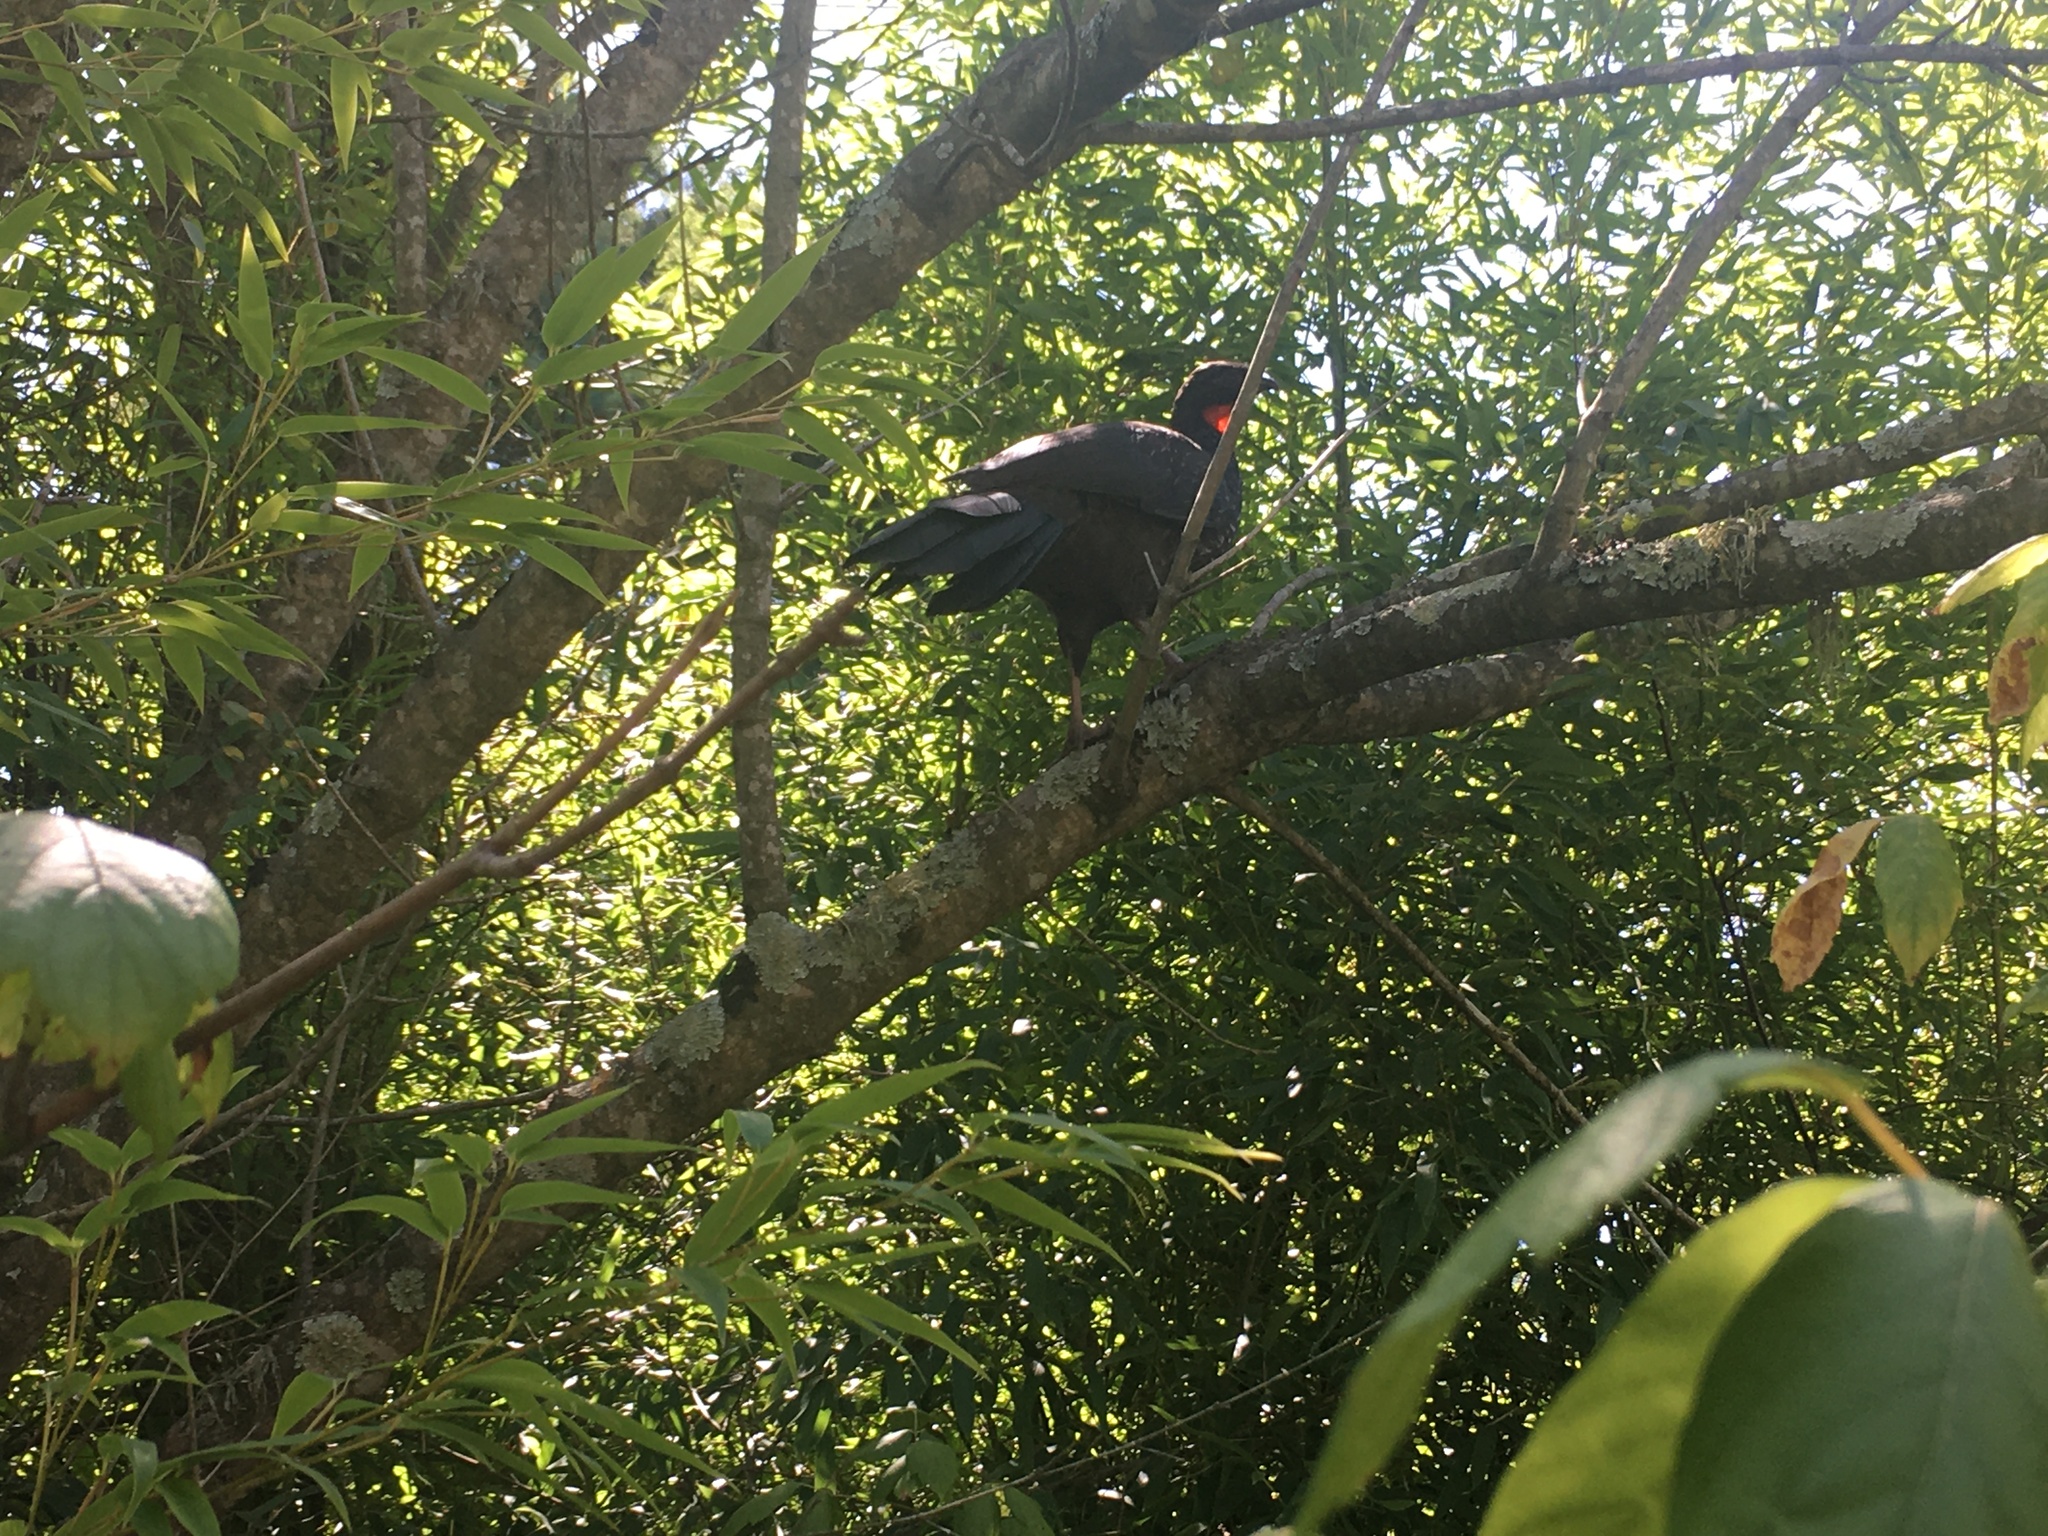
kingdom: Animalia
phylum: Chordata
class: Aves
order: Galliformes
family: Cracidae
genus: Penelope
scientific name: Penelope obscura
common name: Dusky-legged guan
